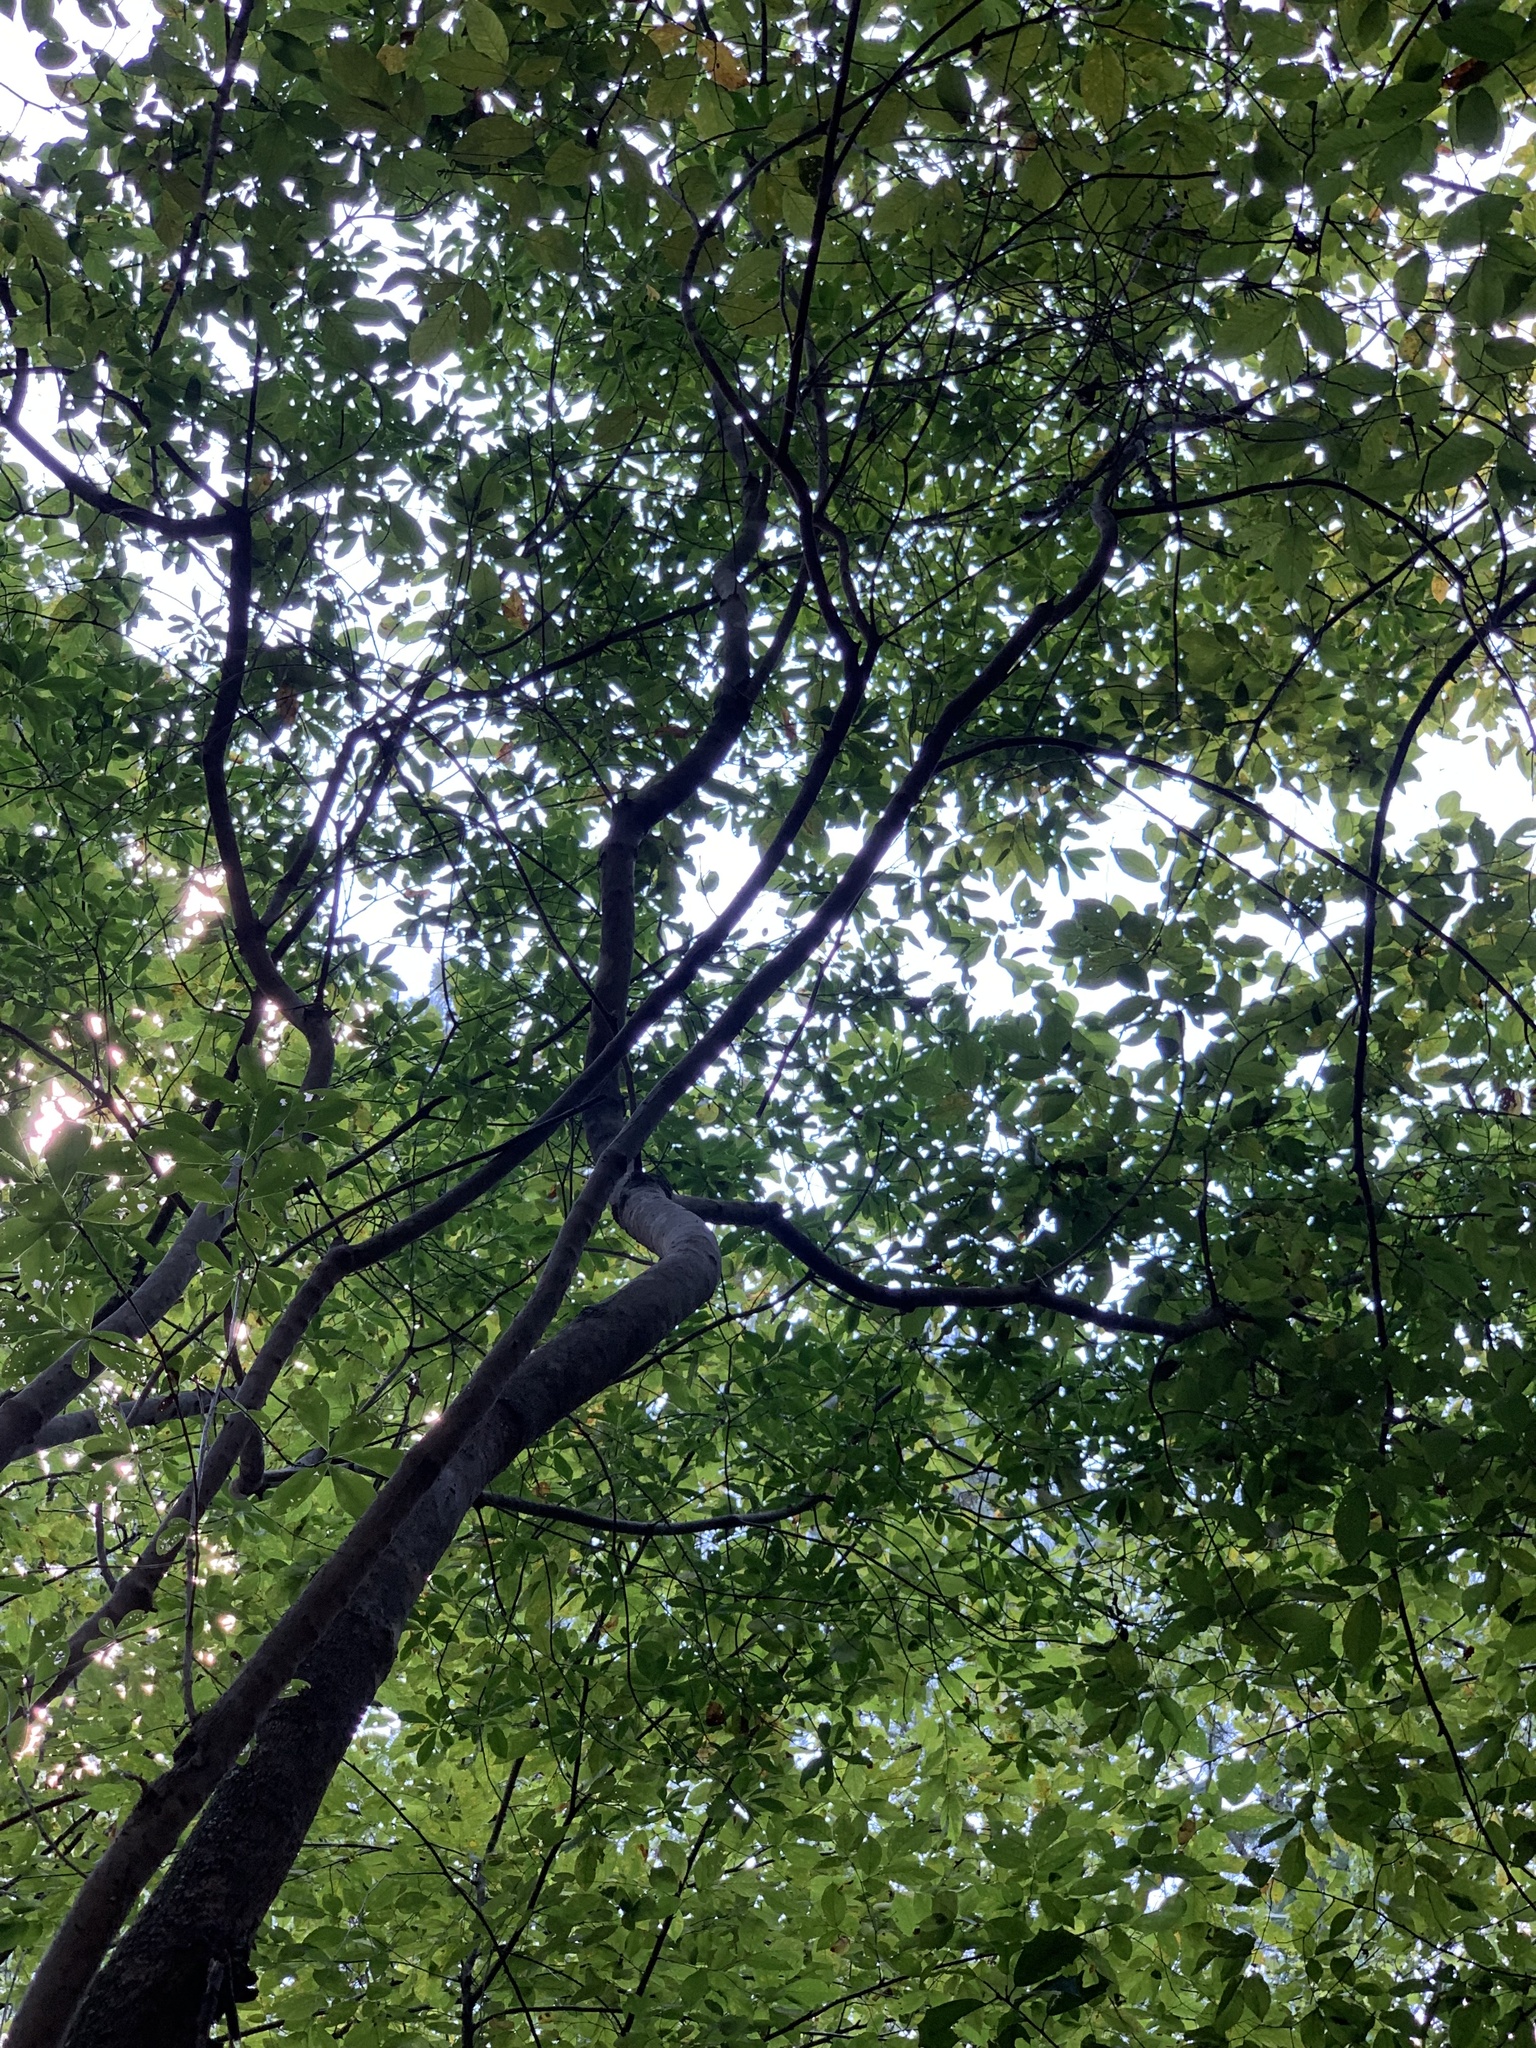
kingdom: Plantae
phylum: Tracheophyta
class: Magnoliopsida
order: Ericales
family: Cyrillaceae
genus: Cyrilla
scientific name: Cyrilla racemiflora
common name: Black titi
